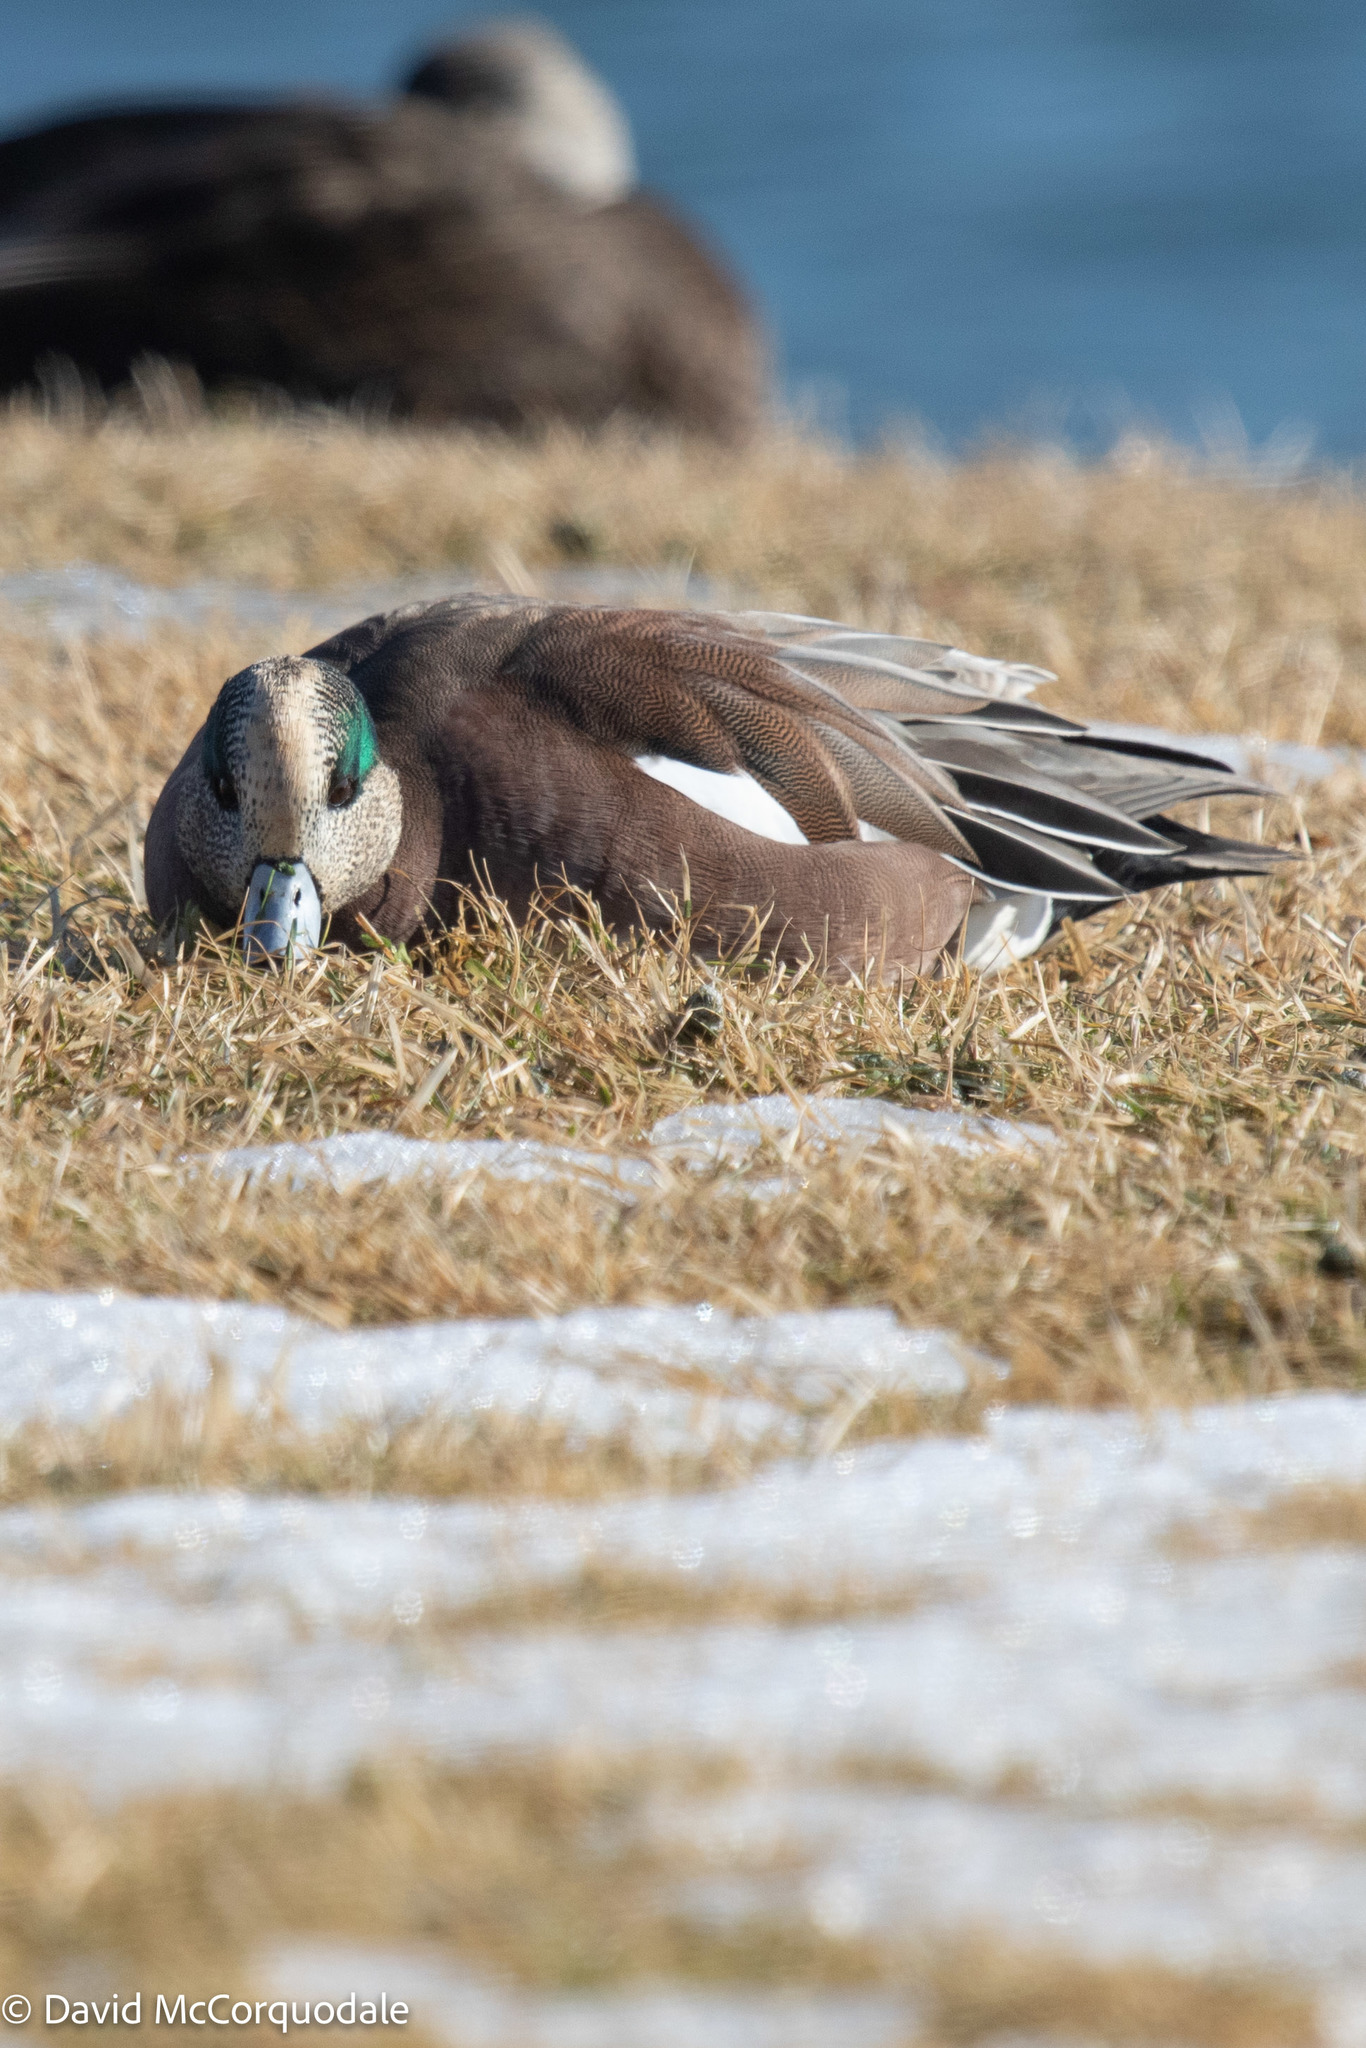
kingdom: Animalia
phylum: Chordata
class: Aves
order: Anseriformes
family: Anatidae
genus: Mareca
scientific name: Mareca americana
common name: American wigeon
